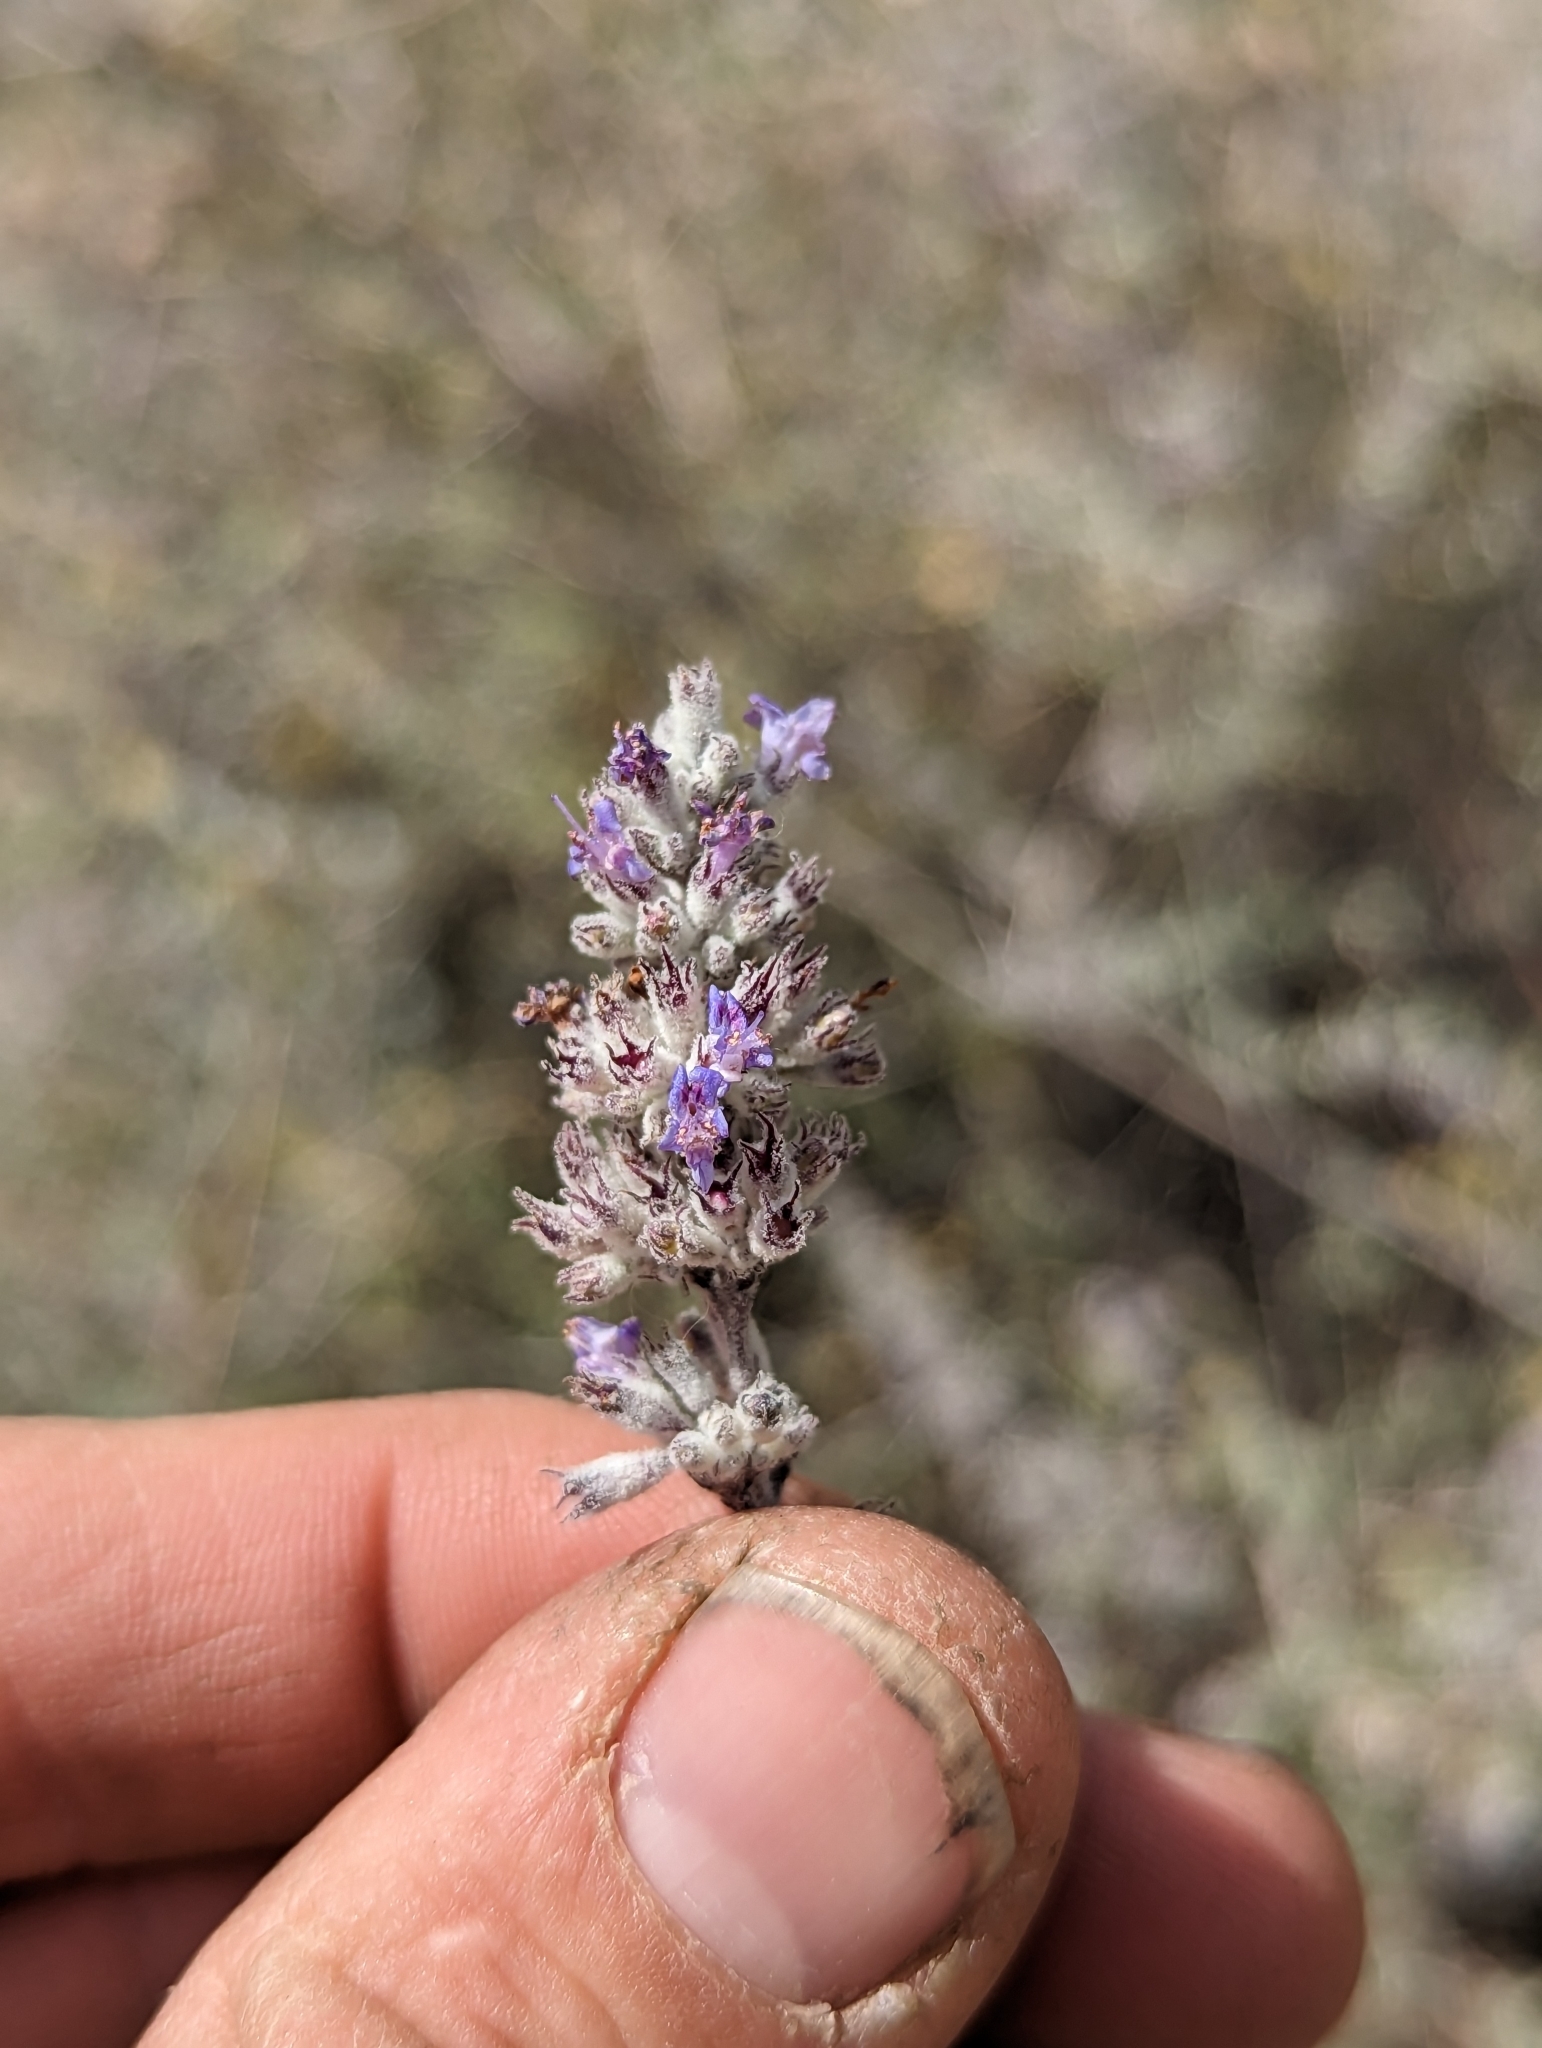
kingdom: Plantae
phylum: Tracheophyta
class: Magnoliopsida
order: Lamiales
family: Lamiaceae
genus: Condea
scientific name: Condea emoryi
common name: Chia
